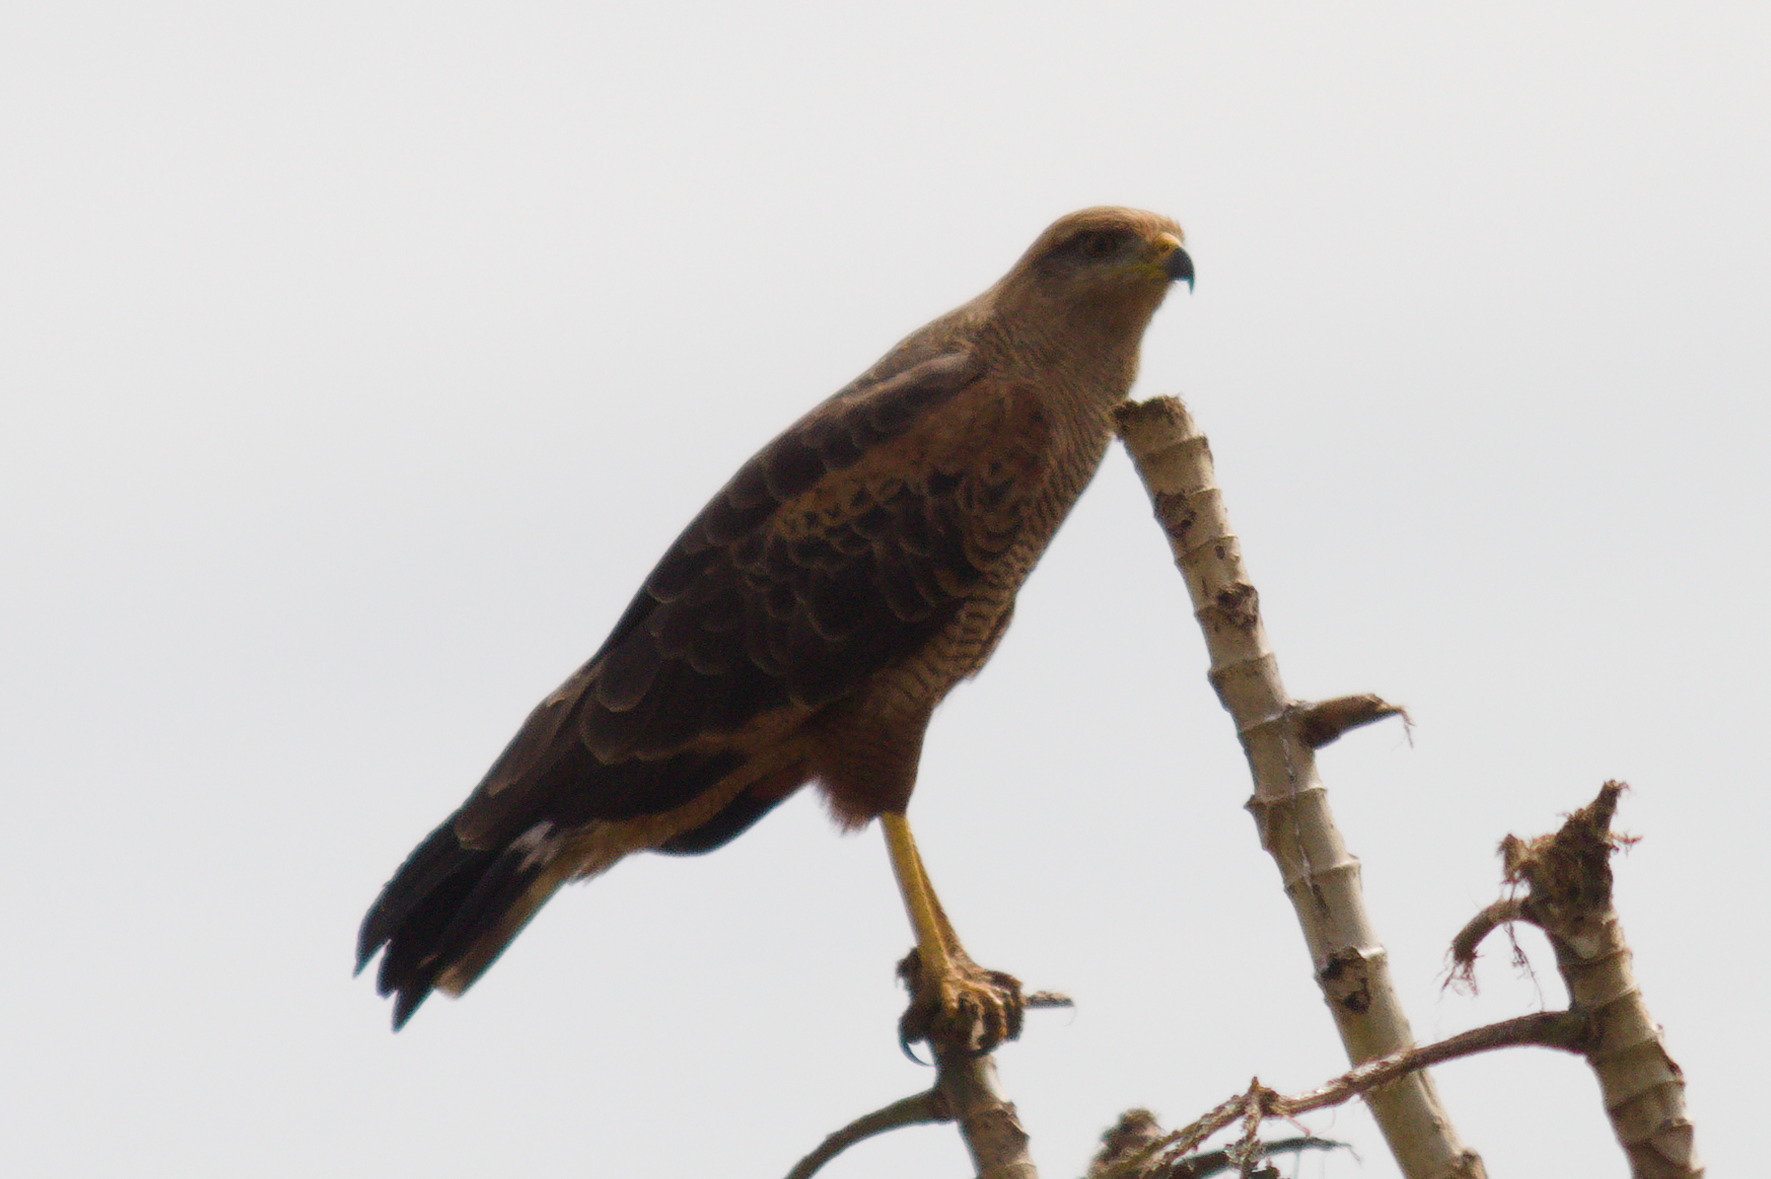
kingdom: Animalia
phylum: Chordata
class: Aves
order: Accipitriformes
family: Accipitridae
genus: Buteogallus
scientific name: Buteogallus meridionalis
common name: Savanna hawk
